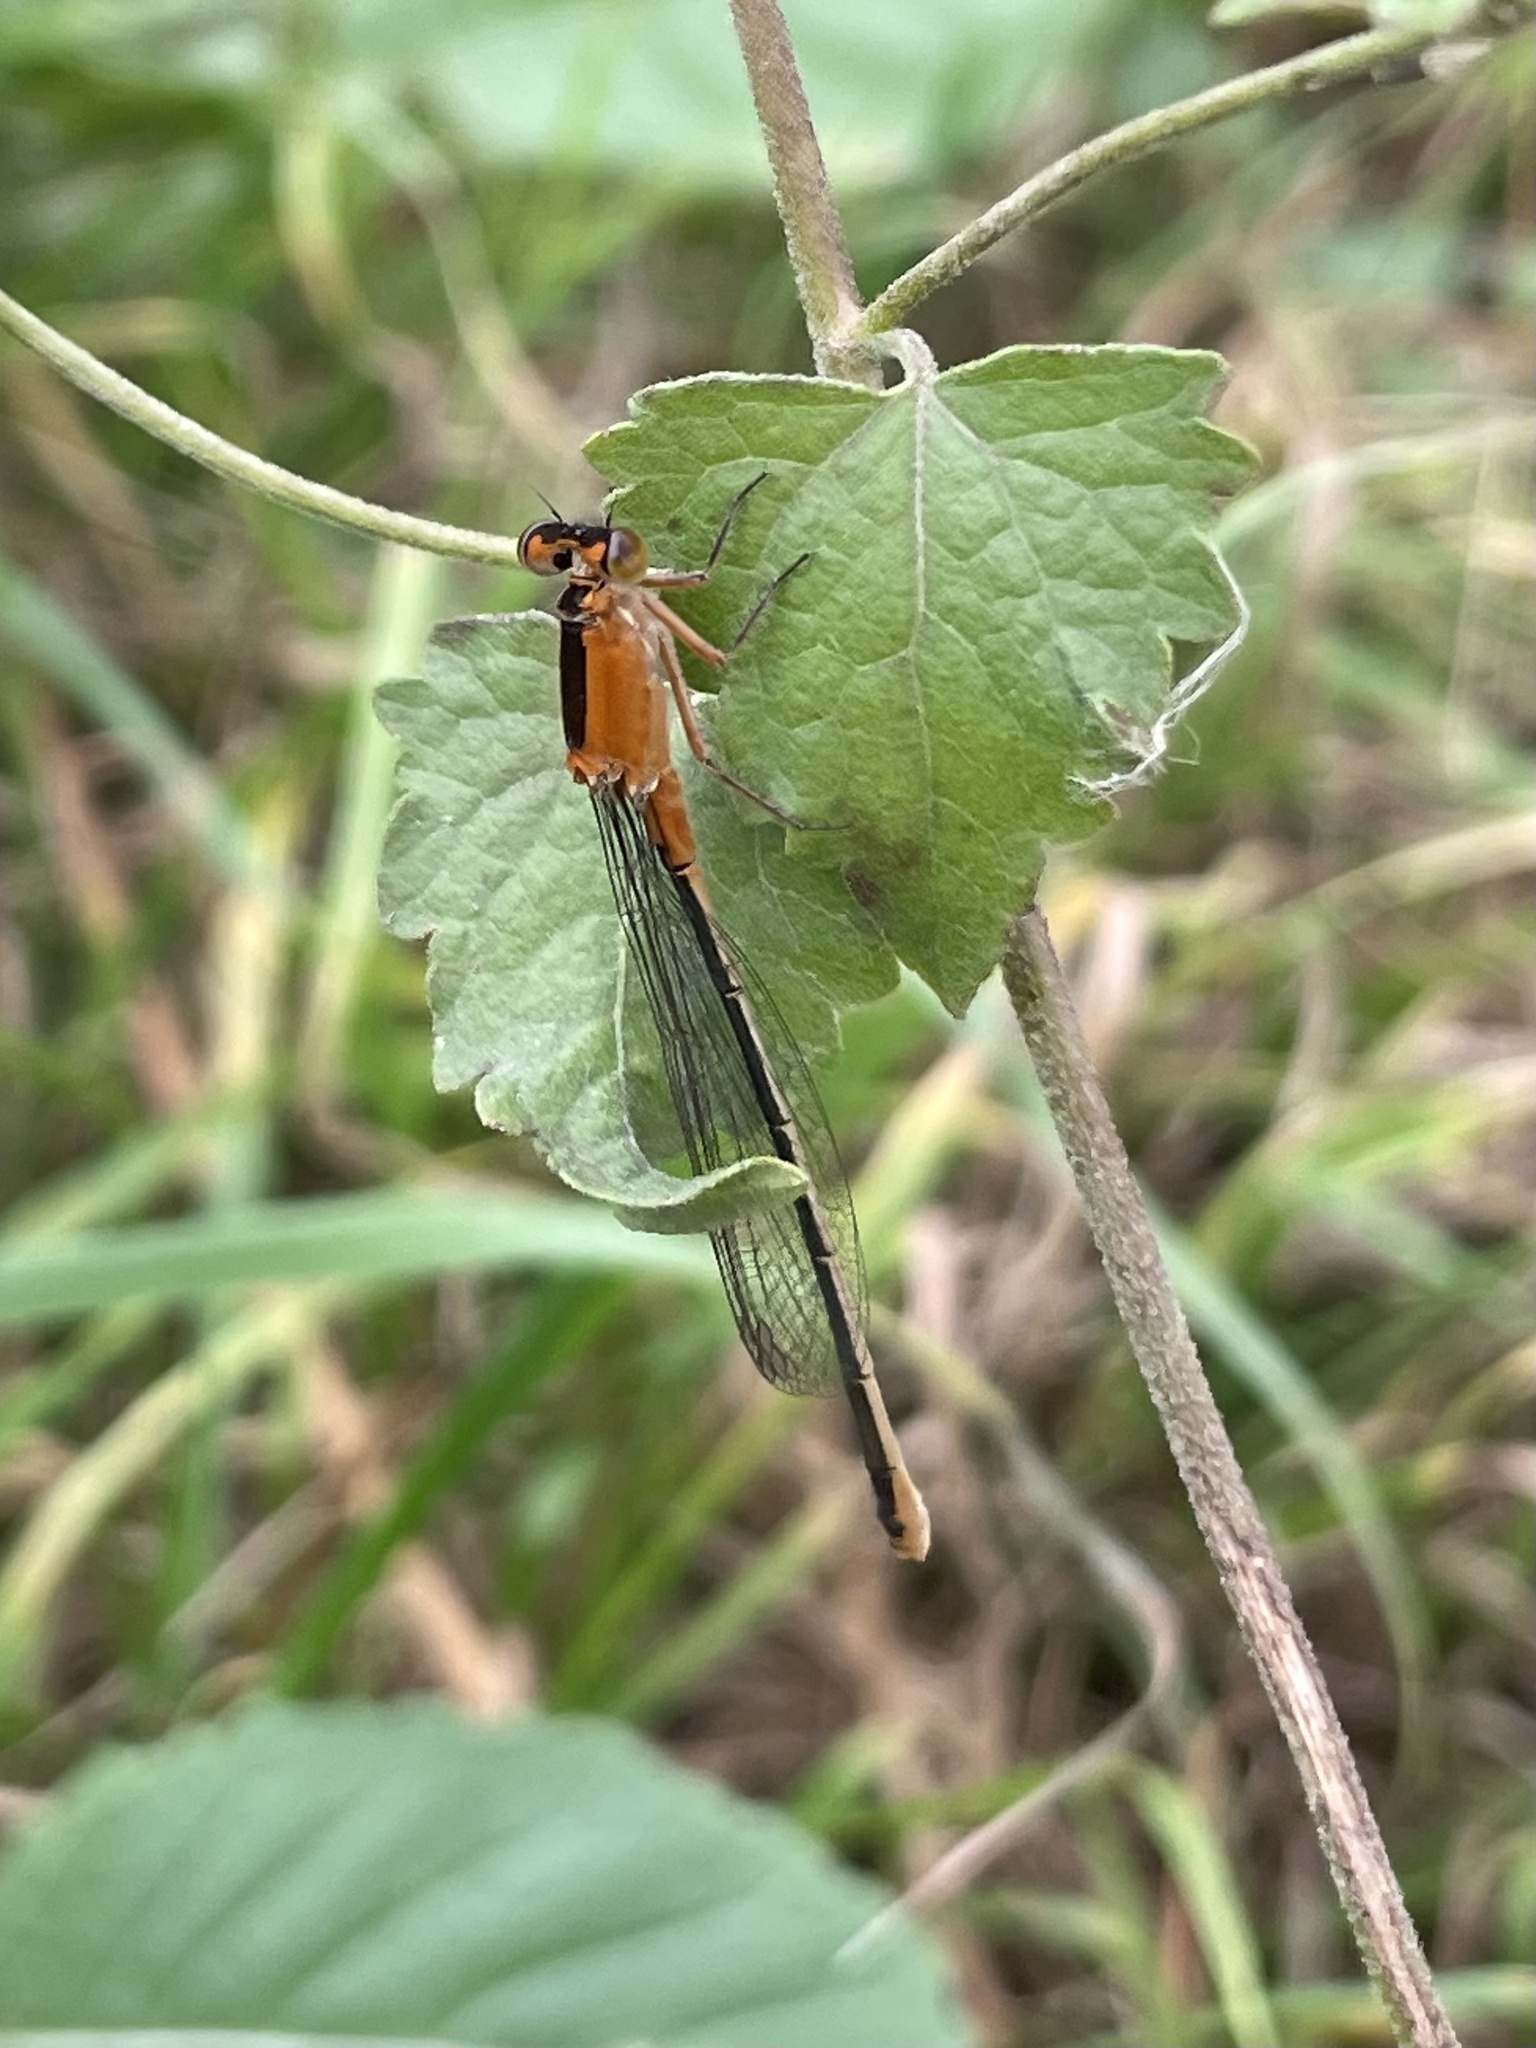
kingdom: Animalia
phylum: Arthropoda
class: Insecta
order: Odonata
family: Coenagrionidae
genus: Ischnura
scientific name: Ischnura ramburii
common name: Rambur's forktail
